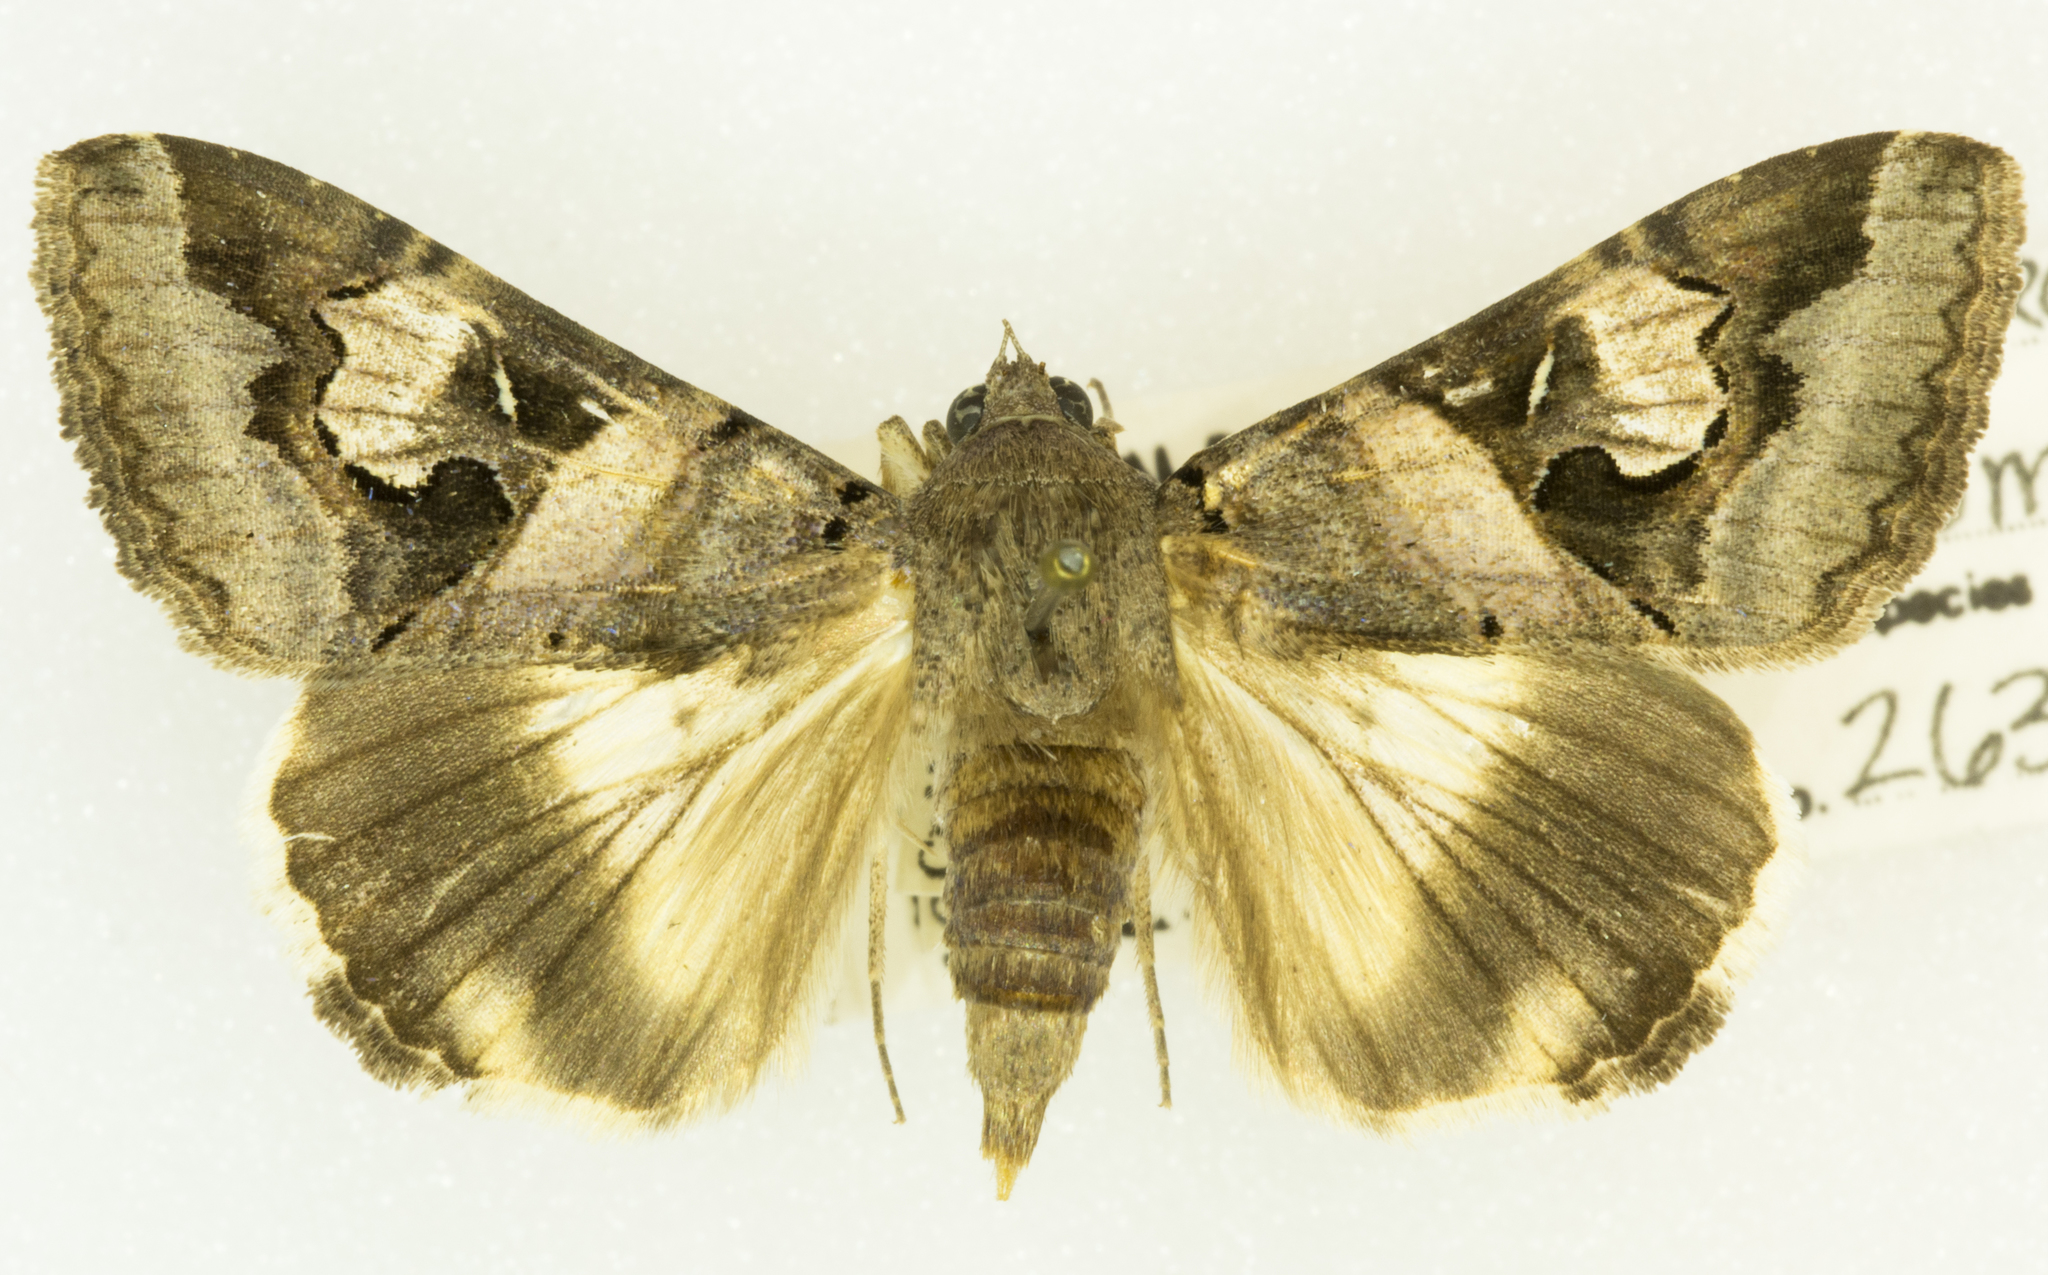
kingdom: Animalia
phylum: Arthropoda
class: Insecta
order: Lepidoptera
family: Erebidae
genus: Melipotis
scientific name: Melipotis indomita
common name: Moth
